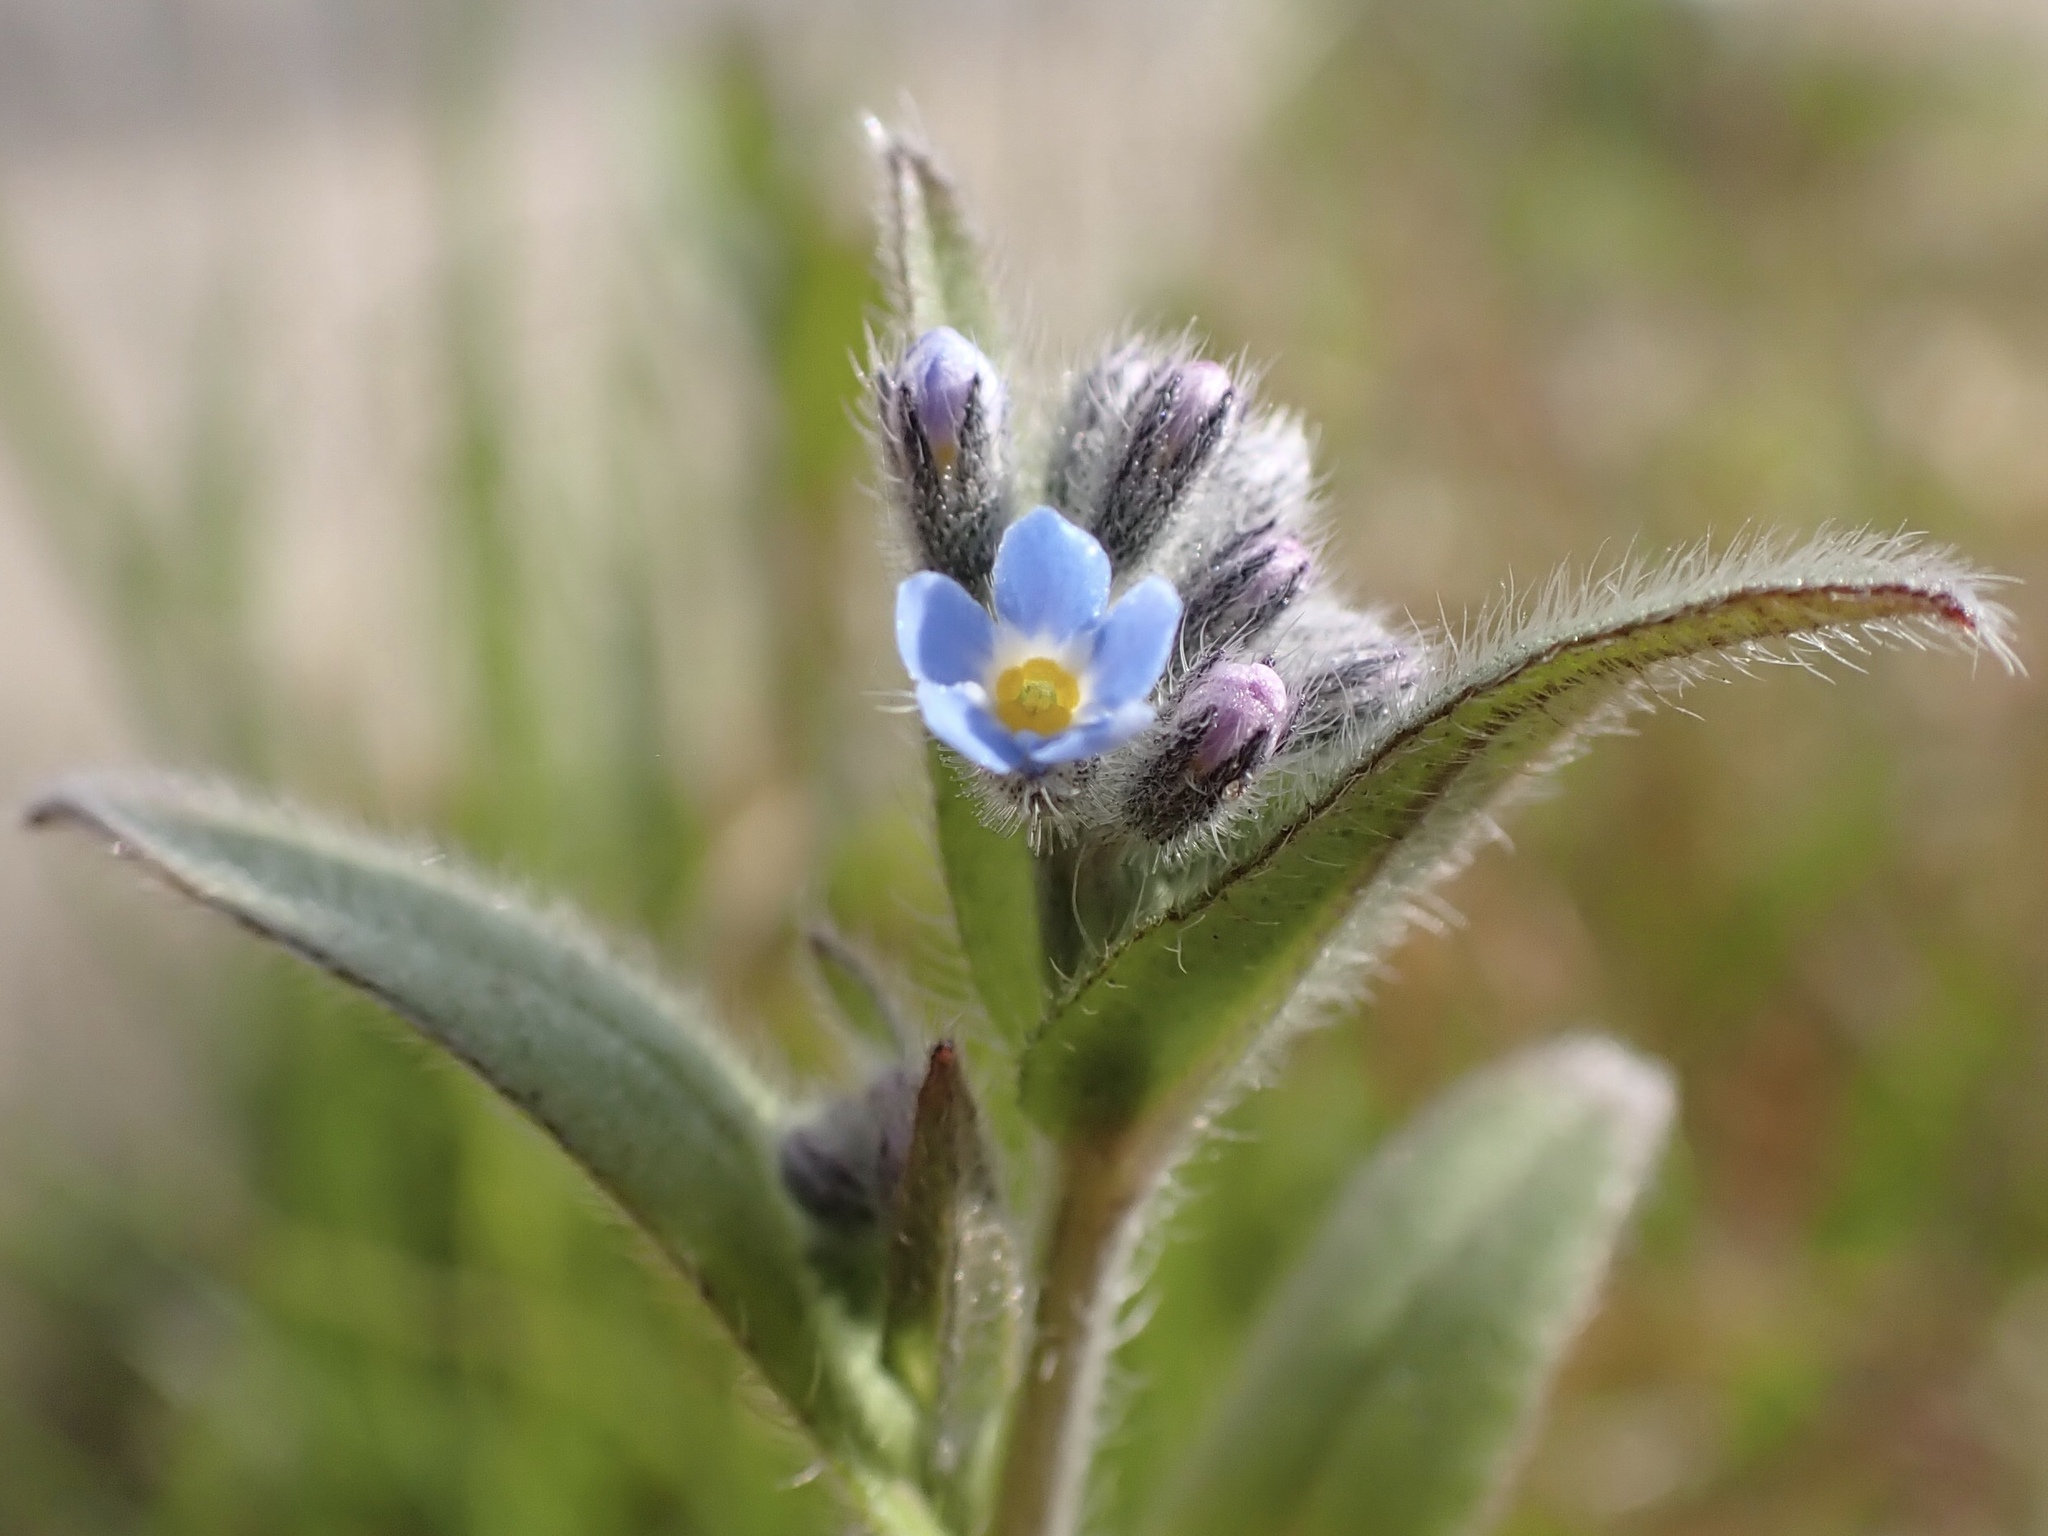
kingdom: Plantae
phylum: Tracheophyta
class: Magnoliopsida
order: Boraginales
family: Boraginaceae
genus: Myosotis
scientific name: Myosotis ramosissima
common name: Early forget-me-not
